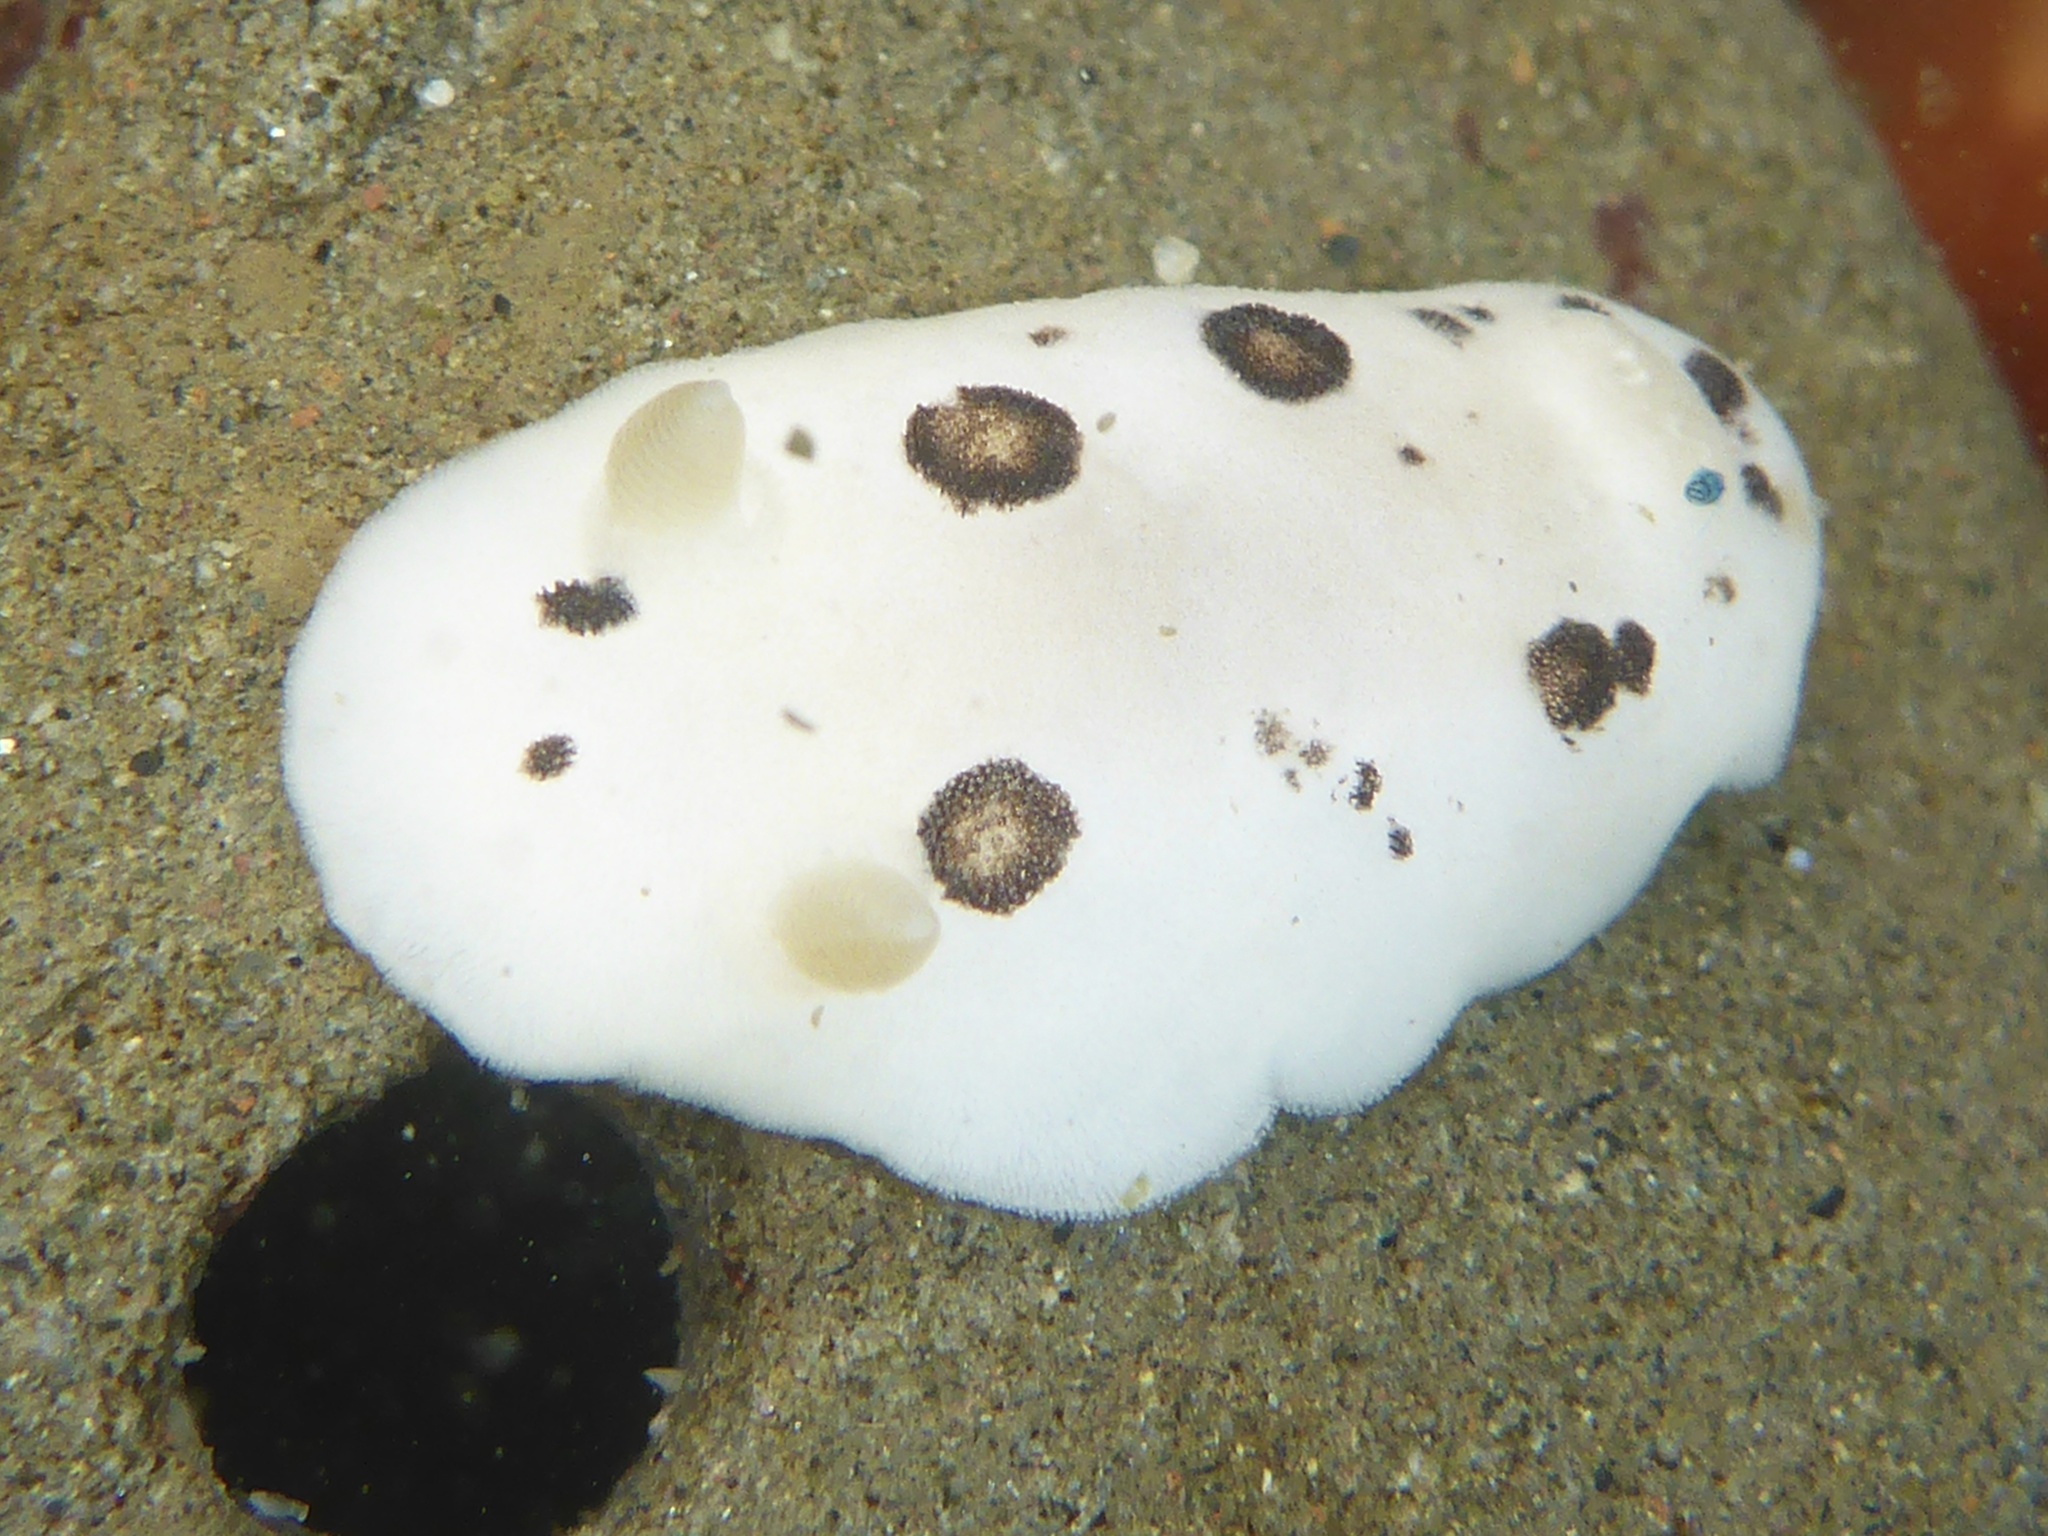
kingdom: Animalia
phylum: Mollusca
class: Gastropoda
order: Nudibranchia
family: Discodorididae
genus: Diaulula
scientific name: Diaulula sandiegensis
